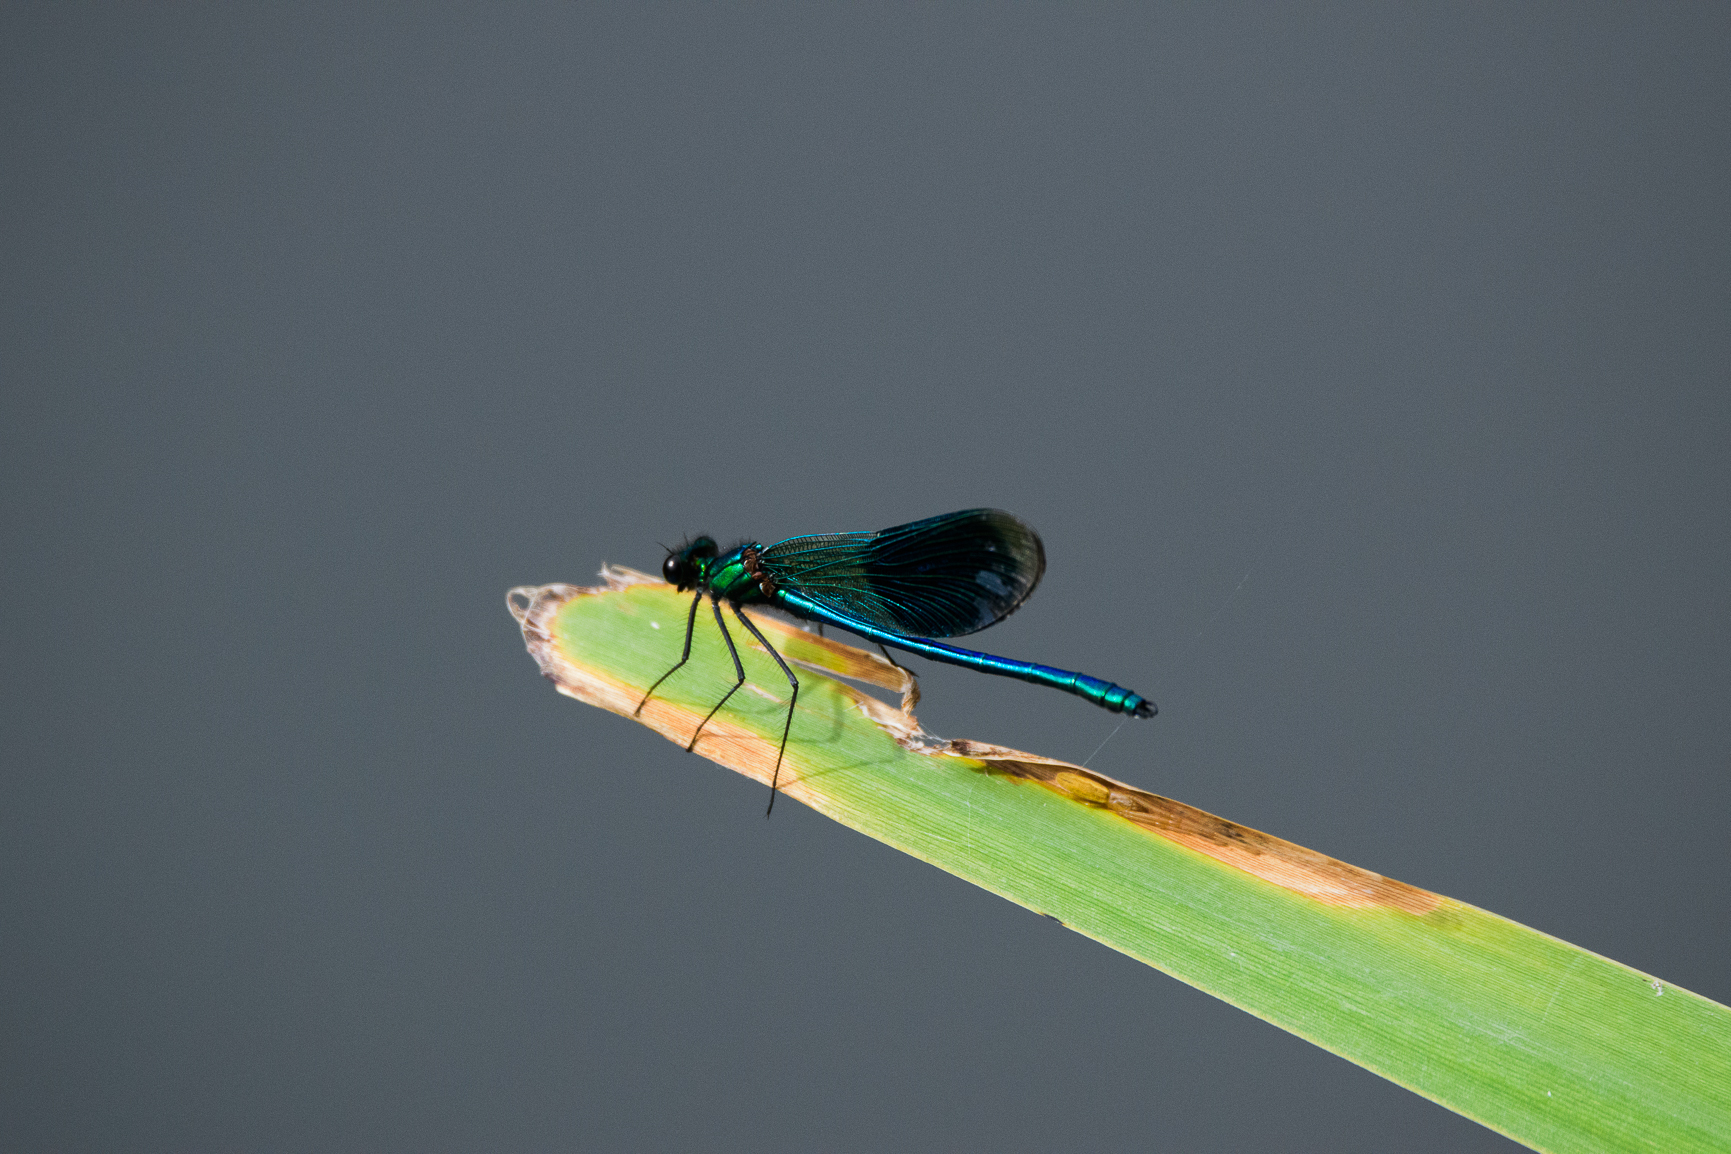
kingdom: Animalia
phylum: Arthropoda
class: Insecta
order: Odonata
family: Calopterygidae
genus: Calopteryx
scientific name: Calopteryx splendens
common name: Banded demoiselle
